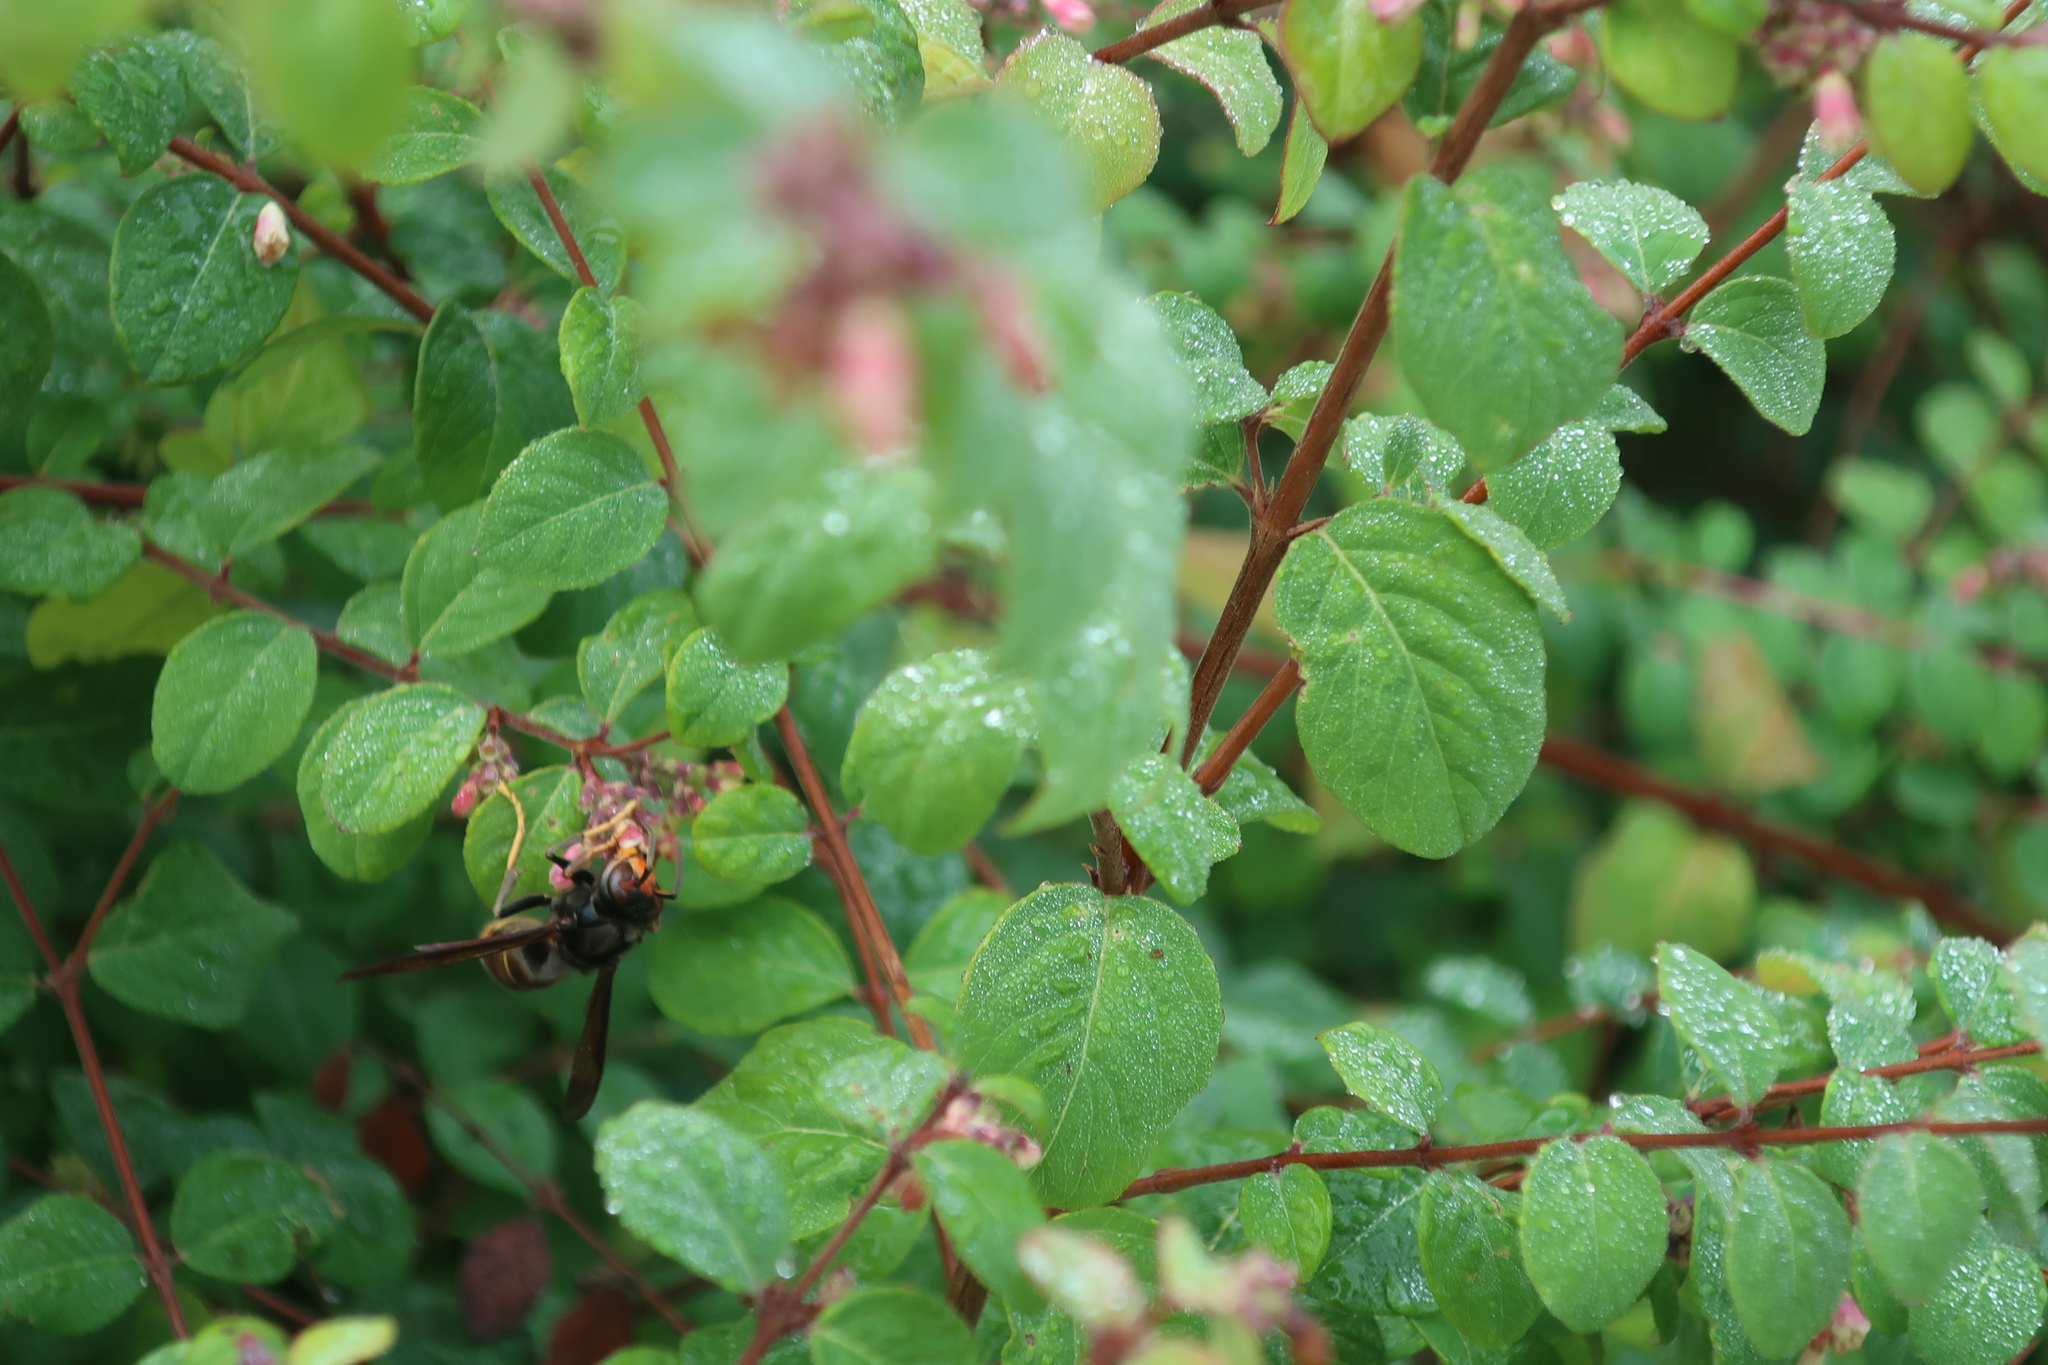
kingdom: Animalia
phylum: Arthropoda
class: Insecta
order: Hymenoptera
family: Vespidae
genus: Vespa
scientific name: Vespa velutina
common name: Asian hornet
